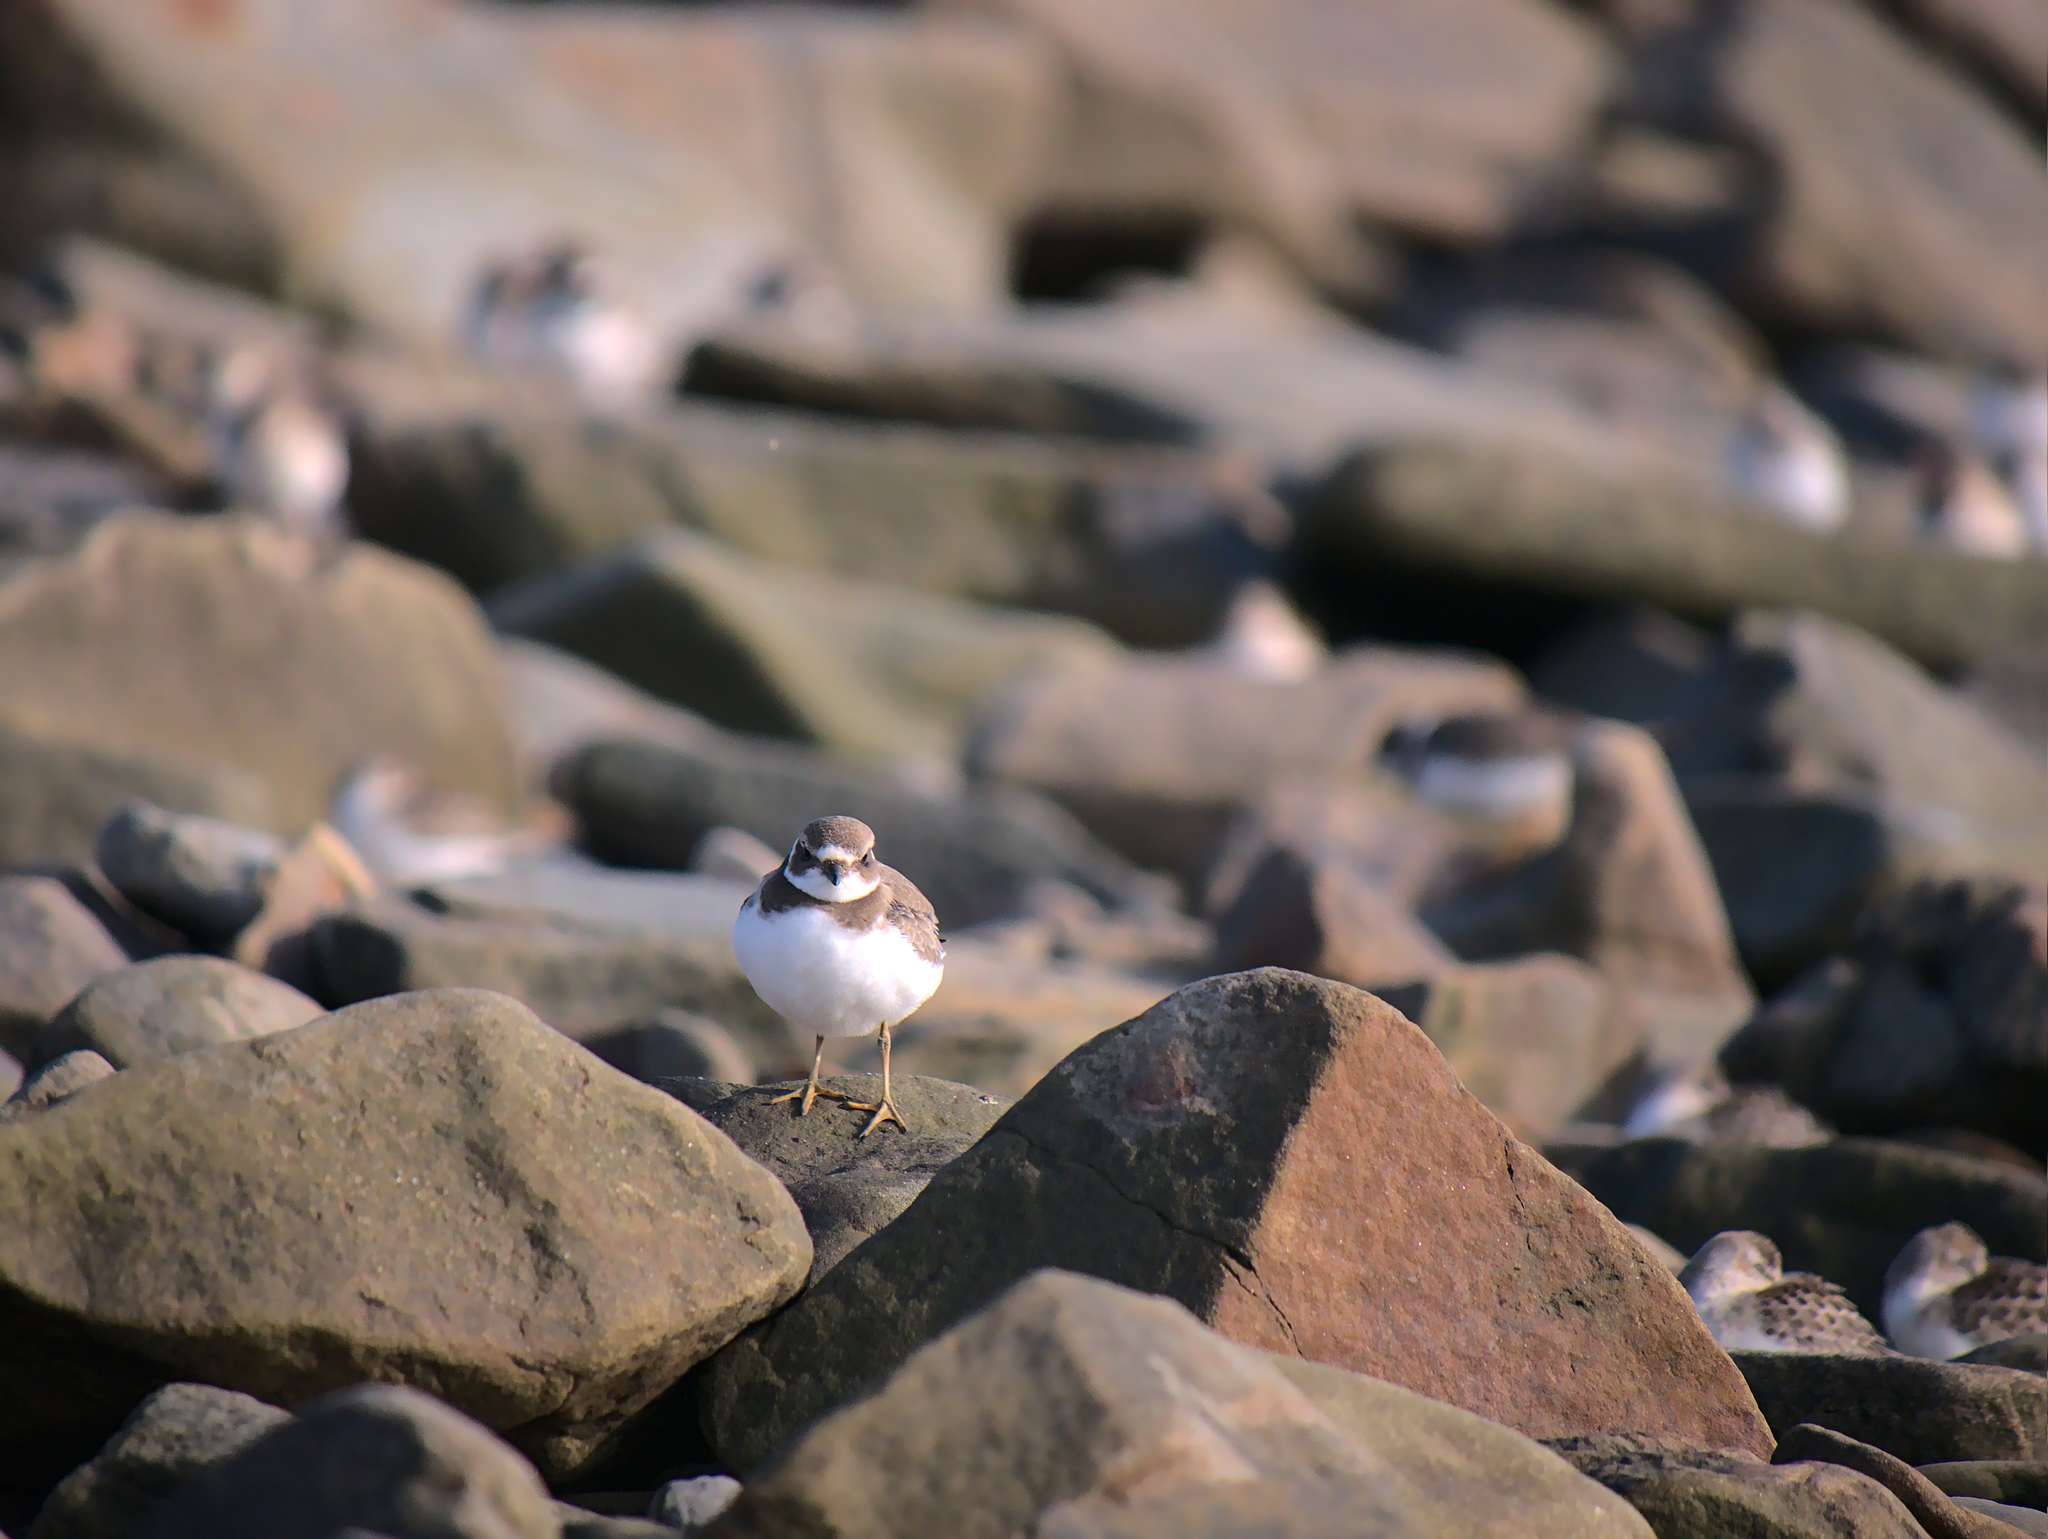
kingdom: Animalia
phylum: Chordata
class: Aves
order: Charadriiformes
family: Charadriidae
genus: Charadrius
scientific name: Charadrius semipalmatus
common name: Semipalmated plover
